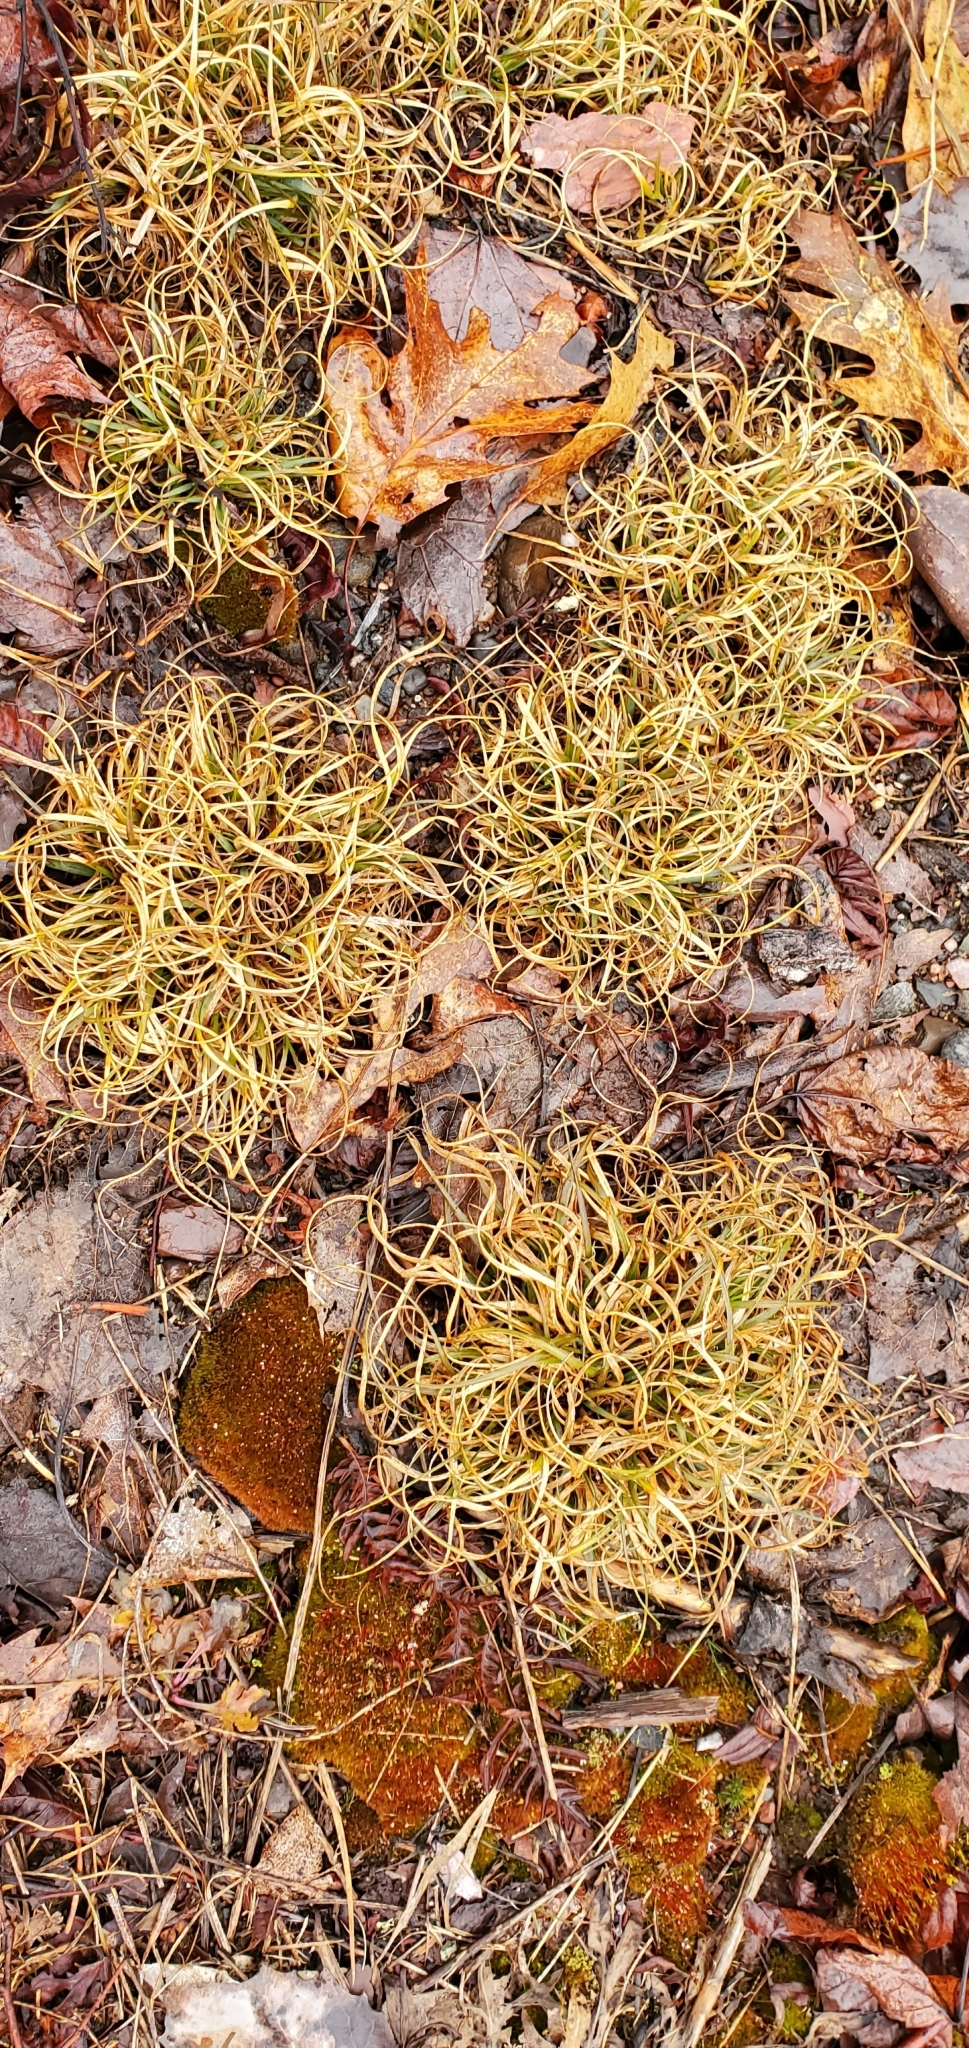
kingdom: Plantae
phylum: Tracheophyta
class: Liliopsida
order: Poales
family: Poaceae
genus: Danthonia
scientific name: Danthonia spicata
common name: Common wild oatgrass
